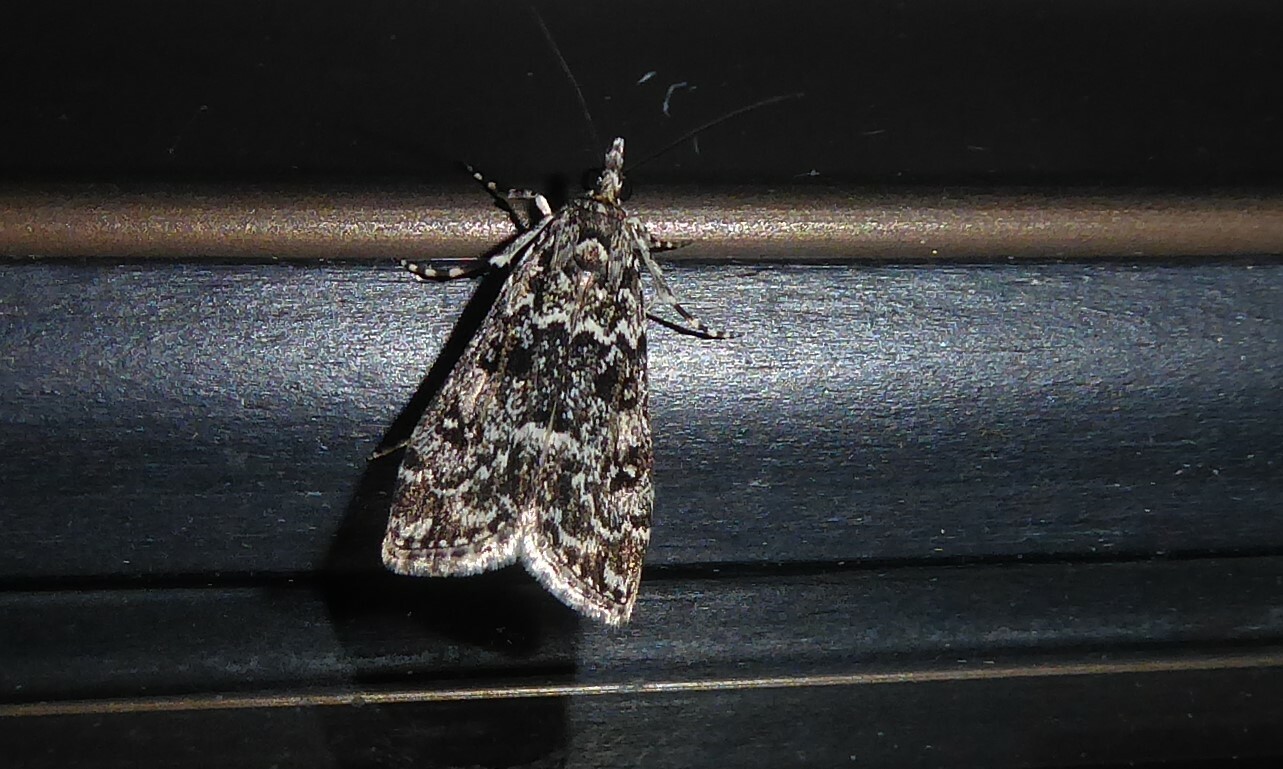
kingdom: Animalia
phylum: Arthropoda
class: Insecta
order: Lepidoptera
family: Crambidae
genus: Eudonia
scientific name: Eudonia philerga
